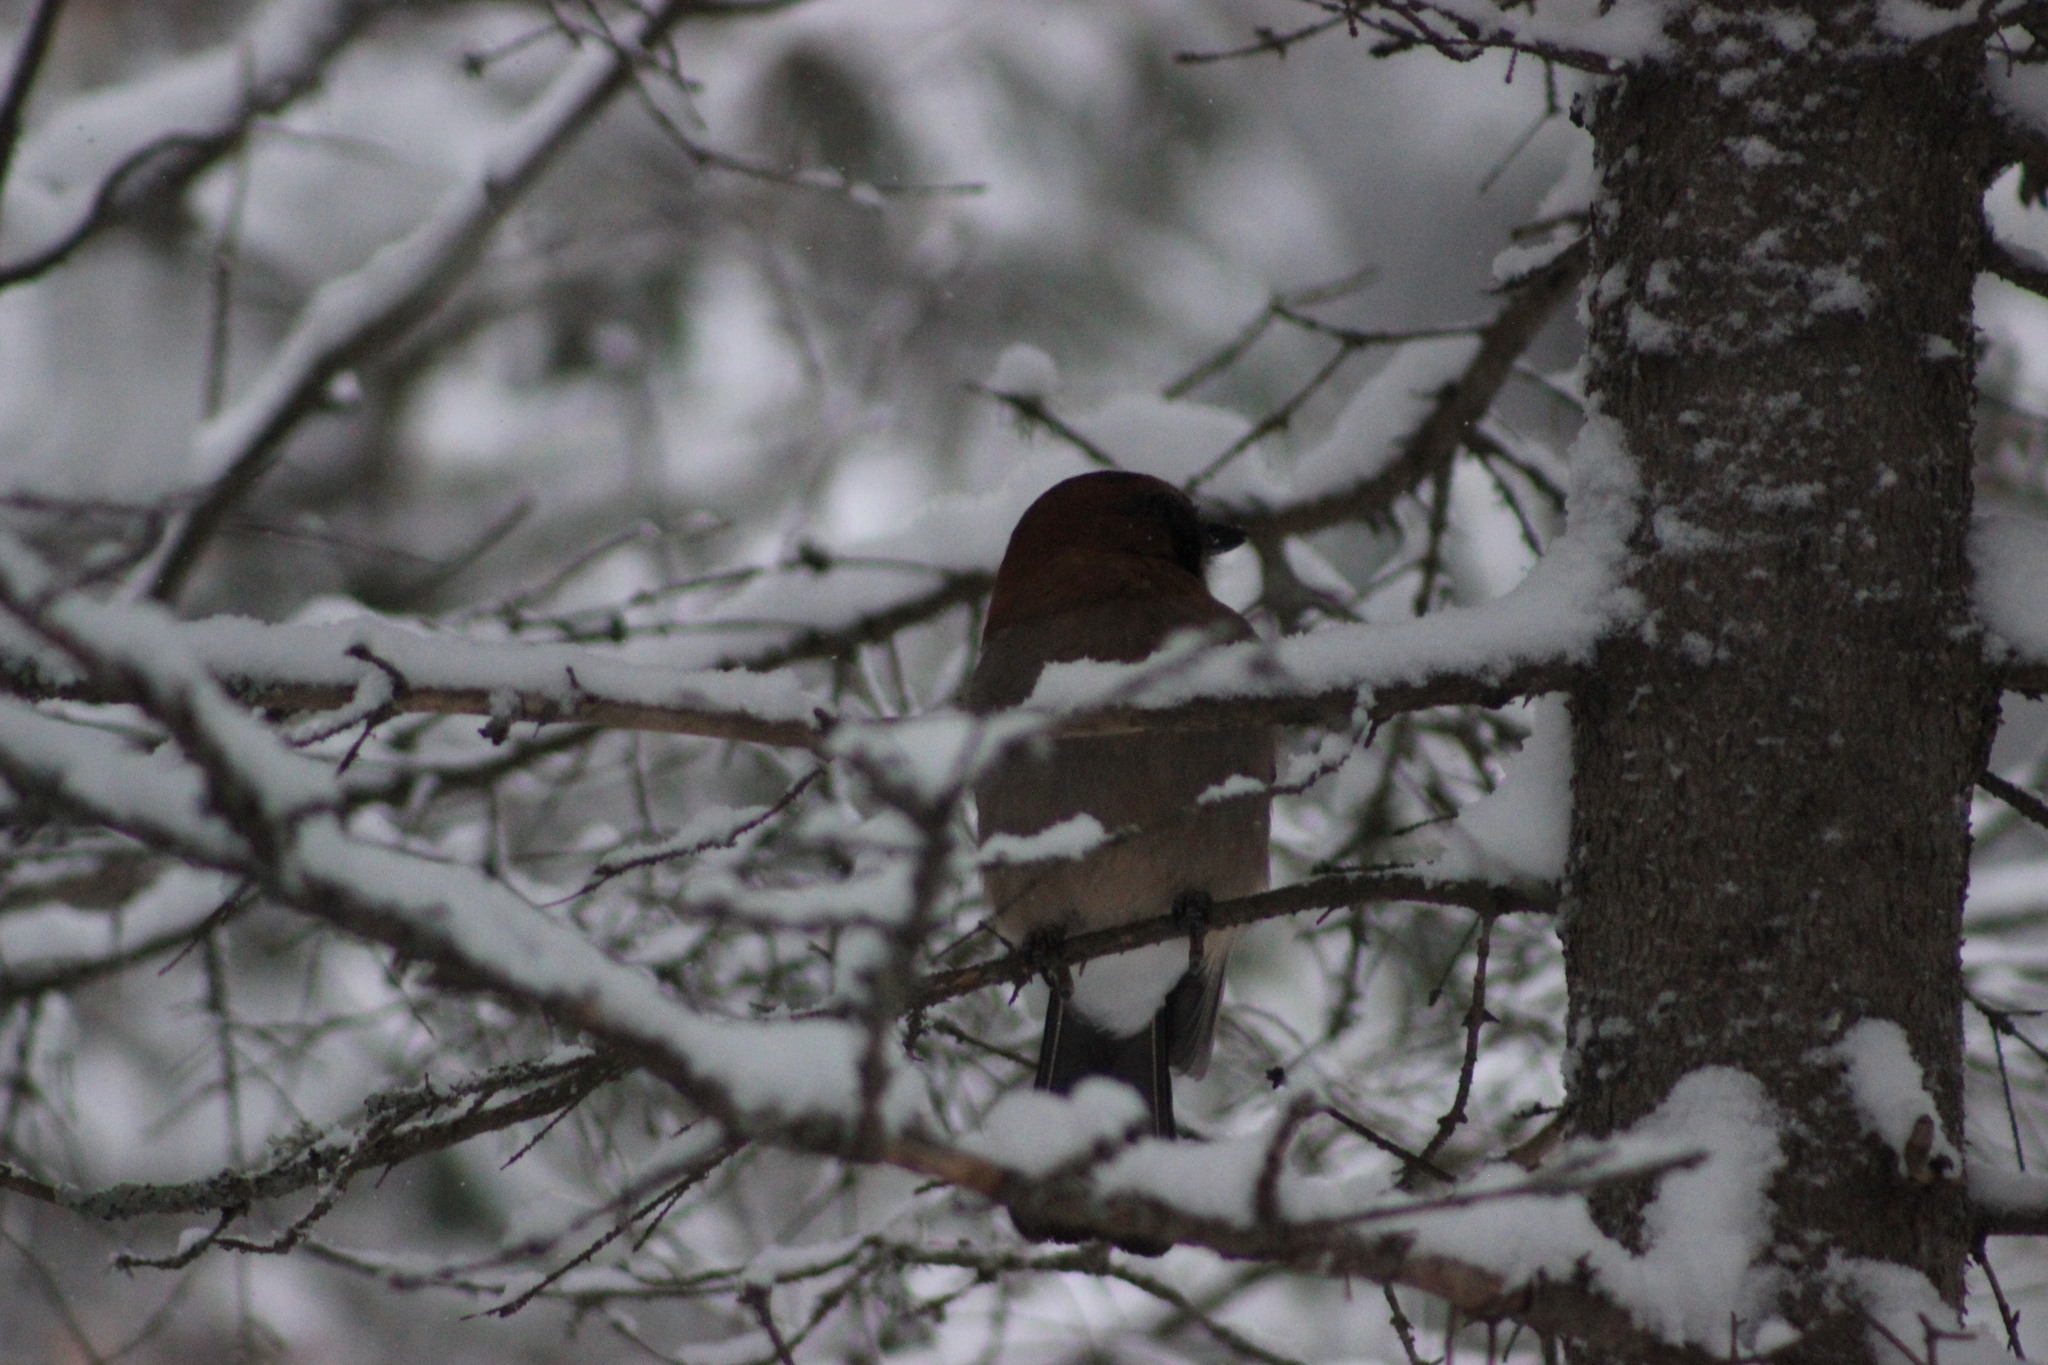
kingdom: Animalia
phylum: Chordata
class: Aves
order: Passeriformes
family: Corvidae
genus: Garrulus
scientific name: Garrulus glandarius
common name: Eurasian jay
